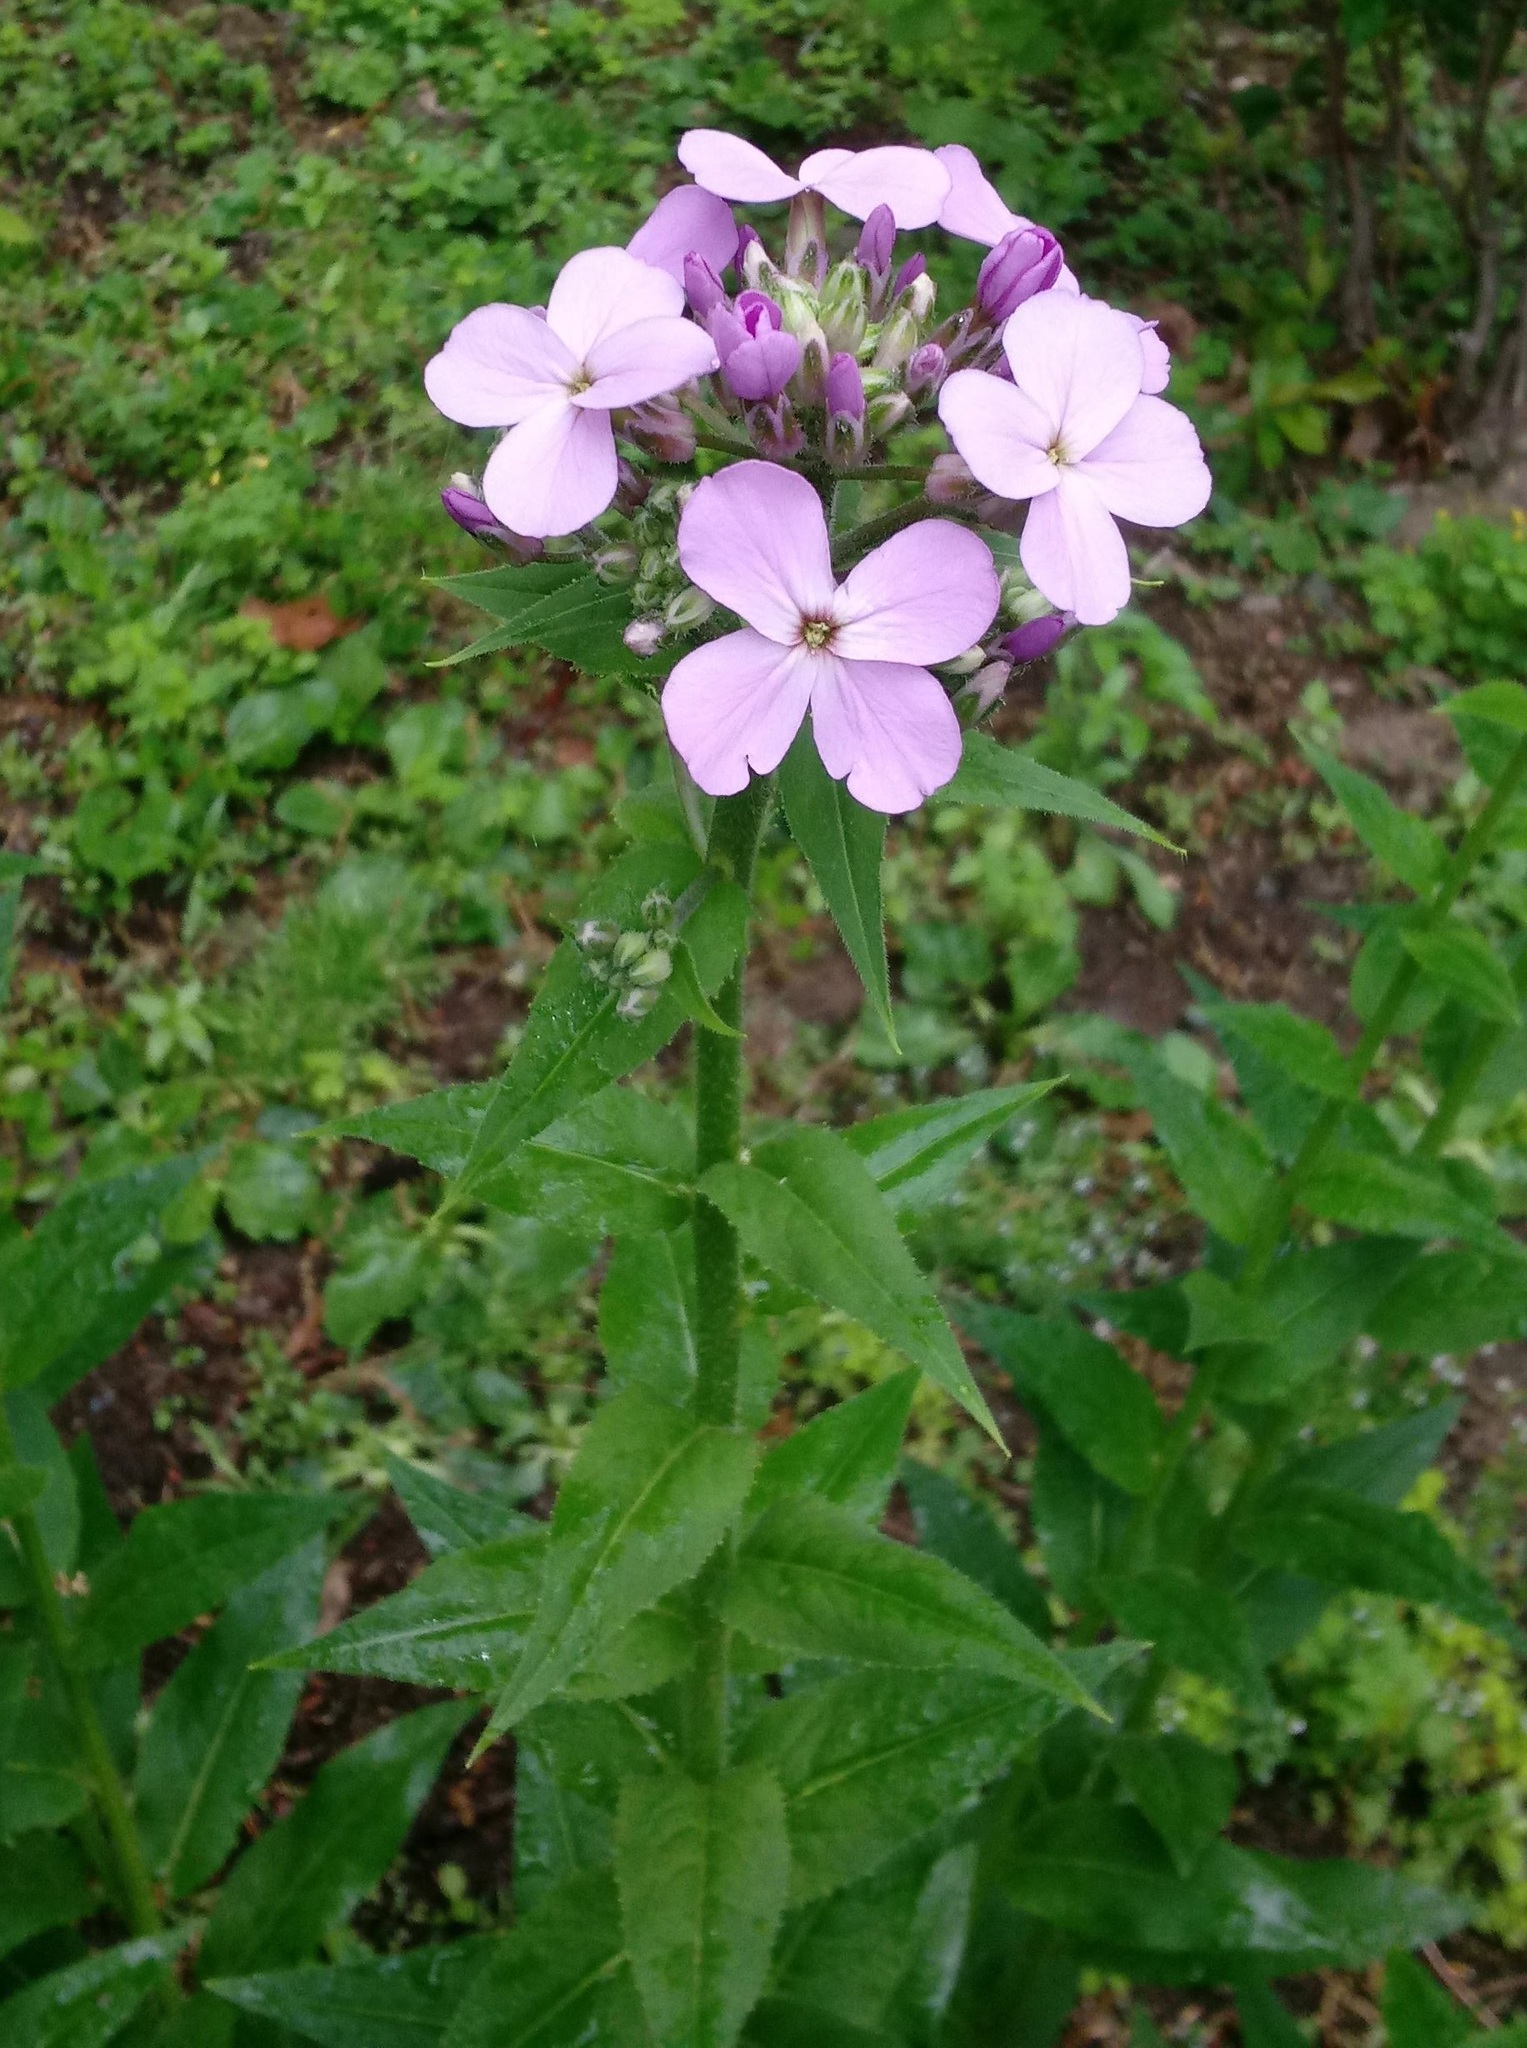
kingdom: Plantae
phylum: Tracheophyta
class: Magnoliopsida
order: Brassicales
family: Brassicaceae
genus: Hesperis
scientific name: Hesperis matronalis
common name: Dame's-violet
